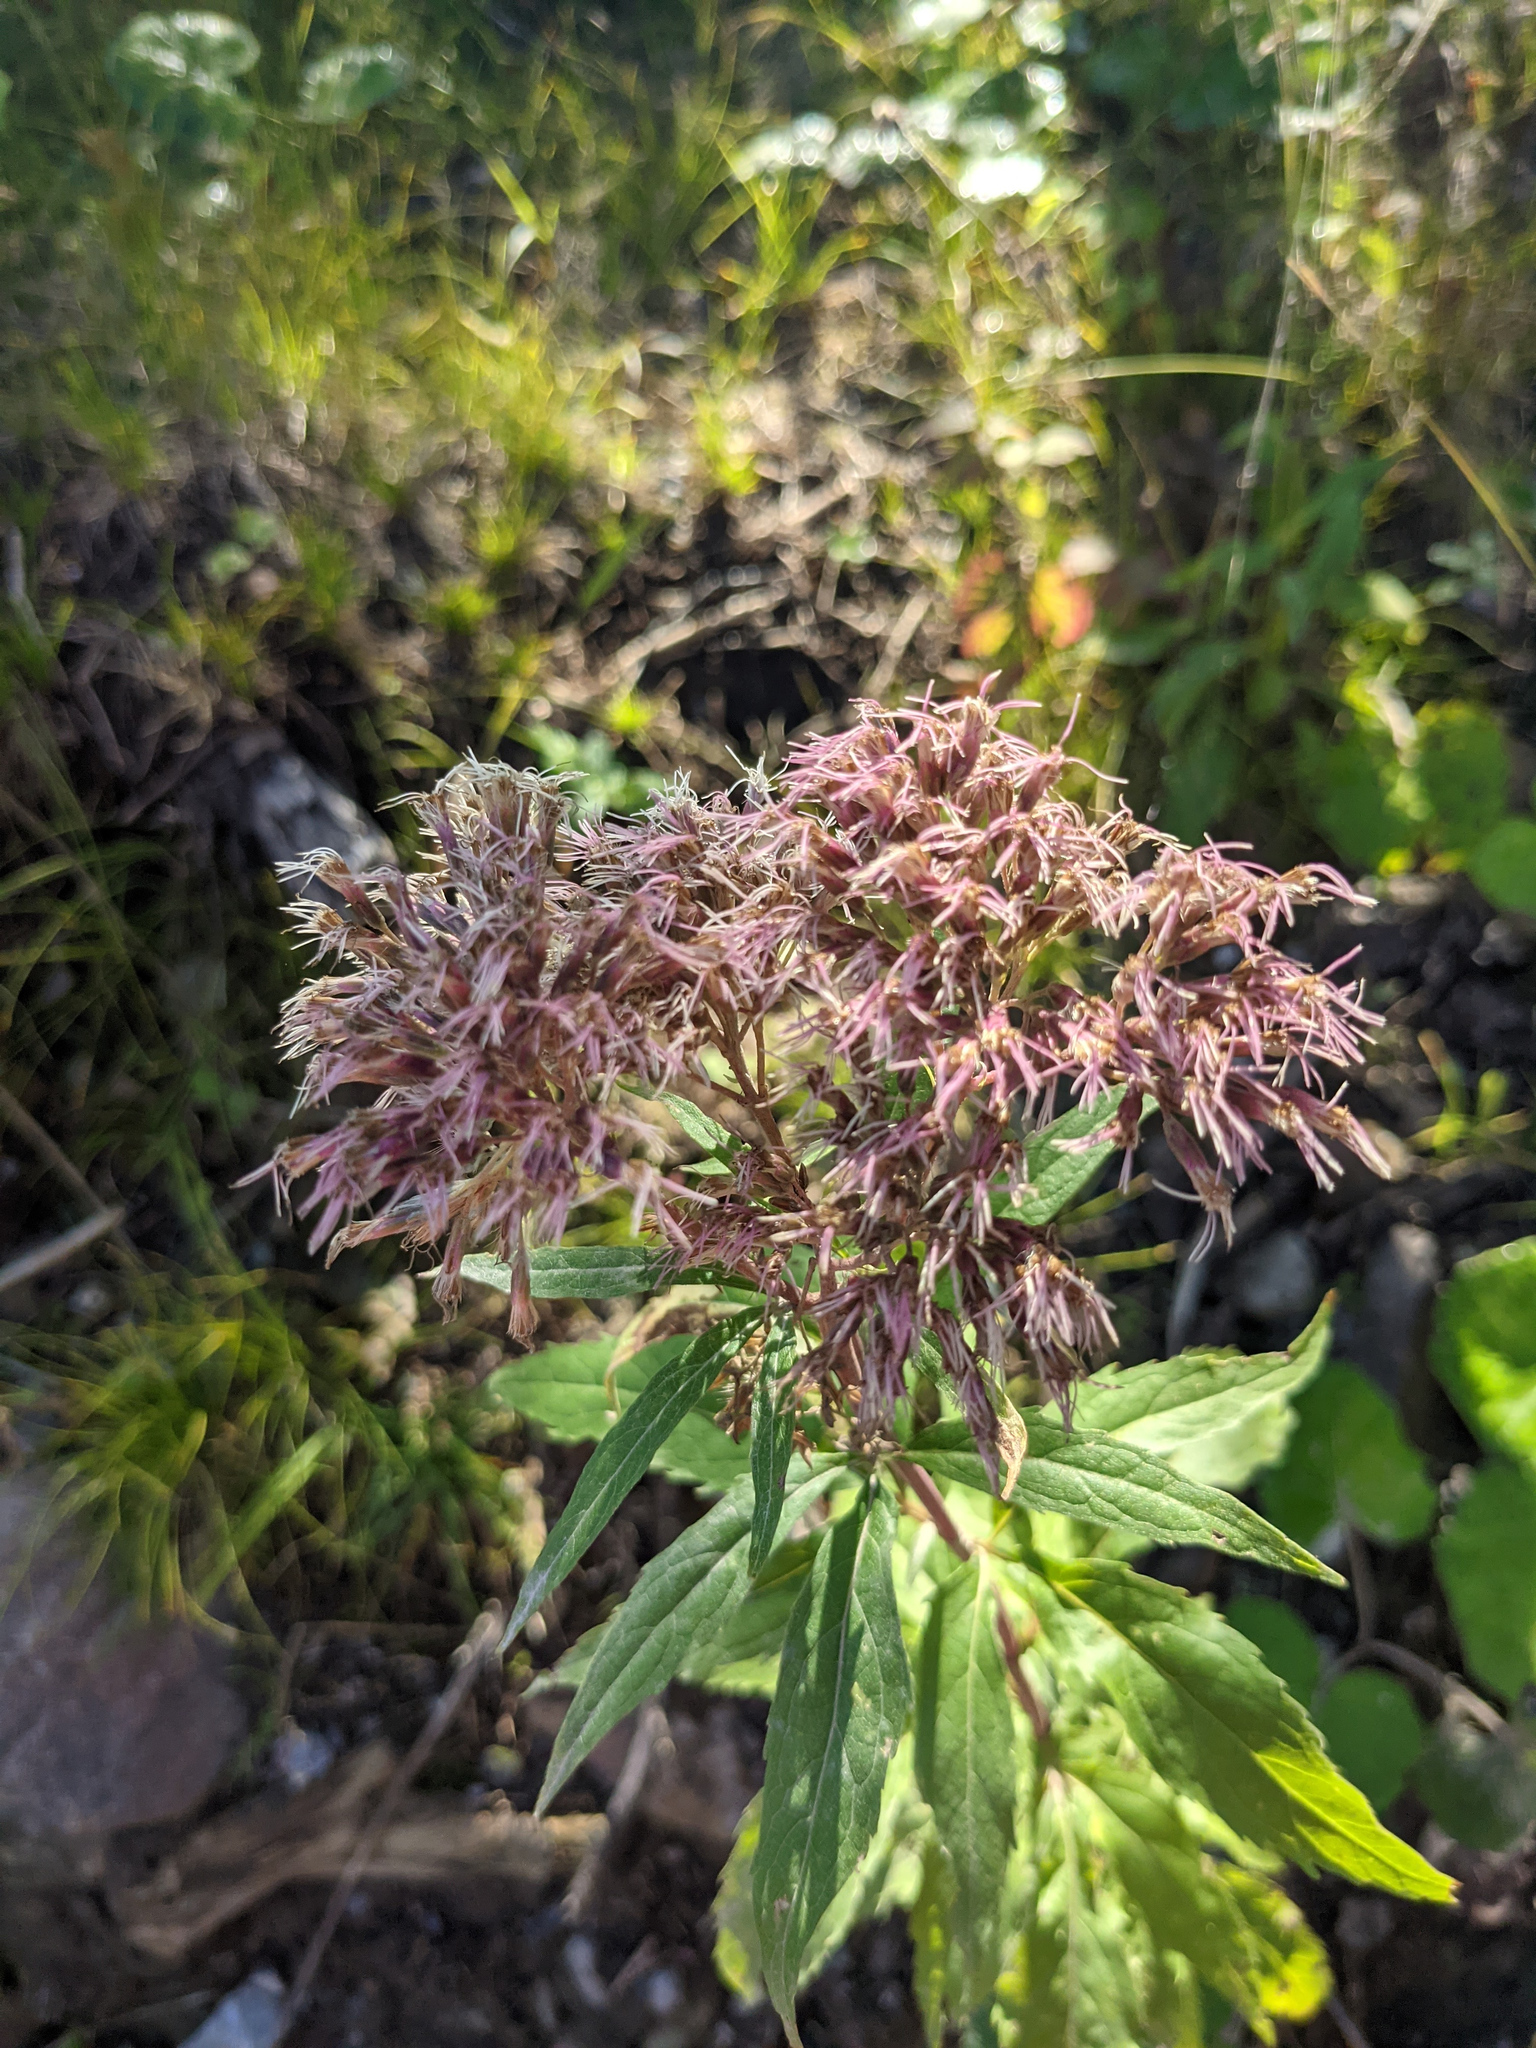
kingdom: Plantae
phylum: Tracheophyta
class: Magnoliopsida
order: Asterales
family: Asteraceae
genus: Eupatorium
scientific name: Eupatorium cannabinum
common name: Hemp-agrimony
